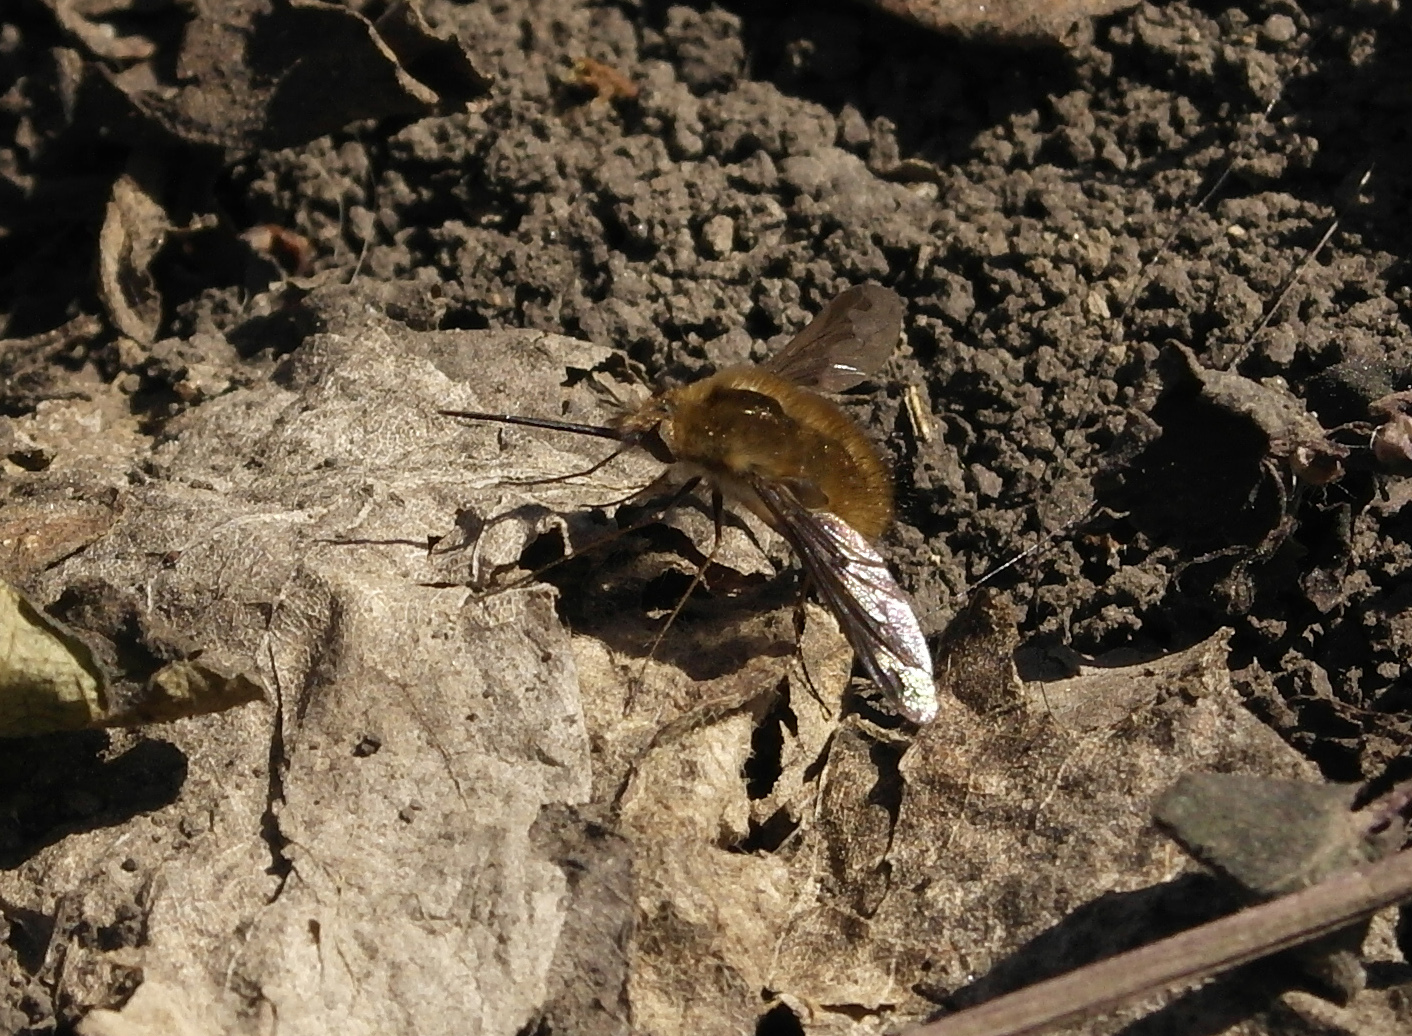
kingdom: Animalia
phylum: Arthropoda
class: Insecta
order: Diptera
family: Bombyliidae
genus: Bombylius
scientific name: Bombylius major
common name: Bee fly
